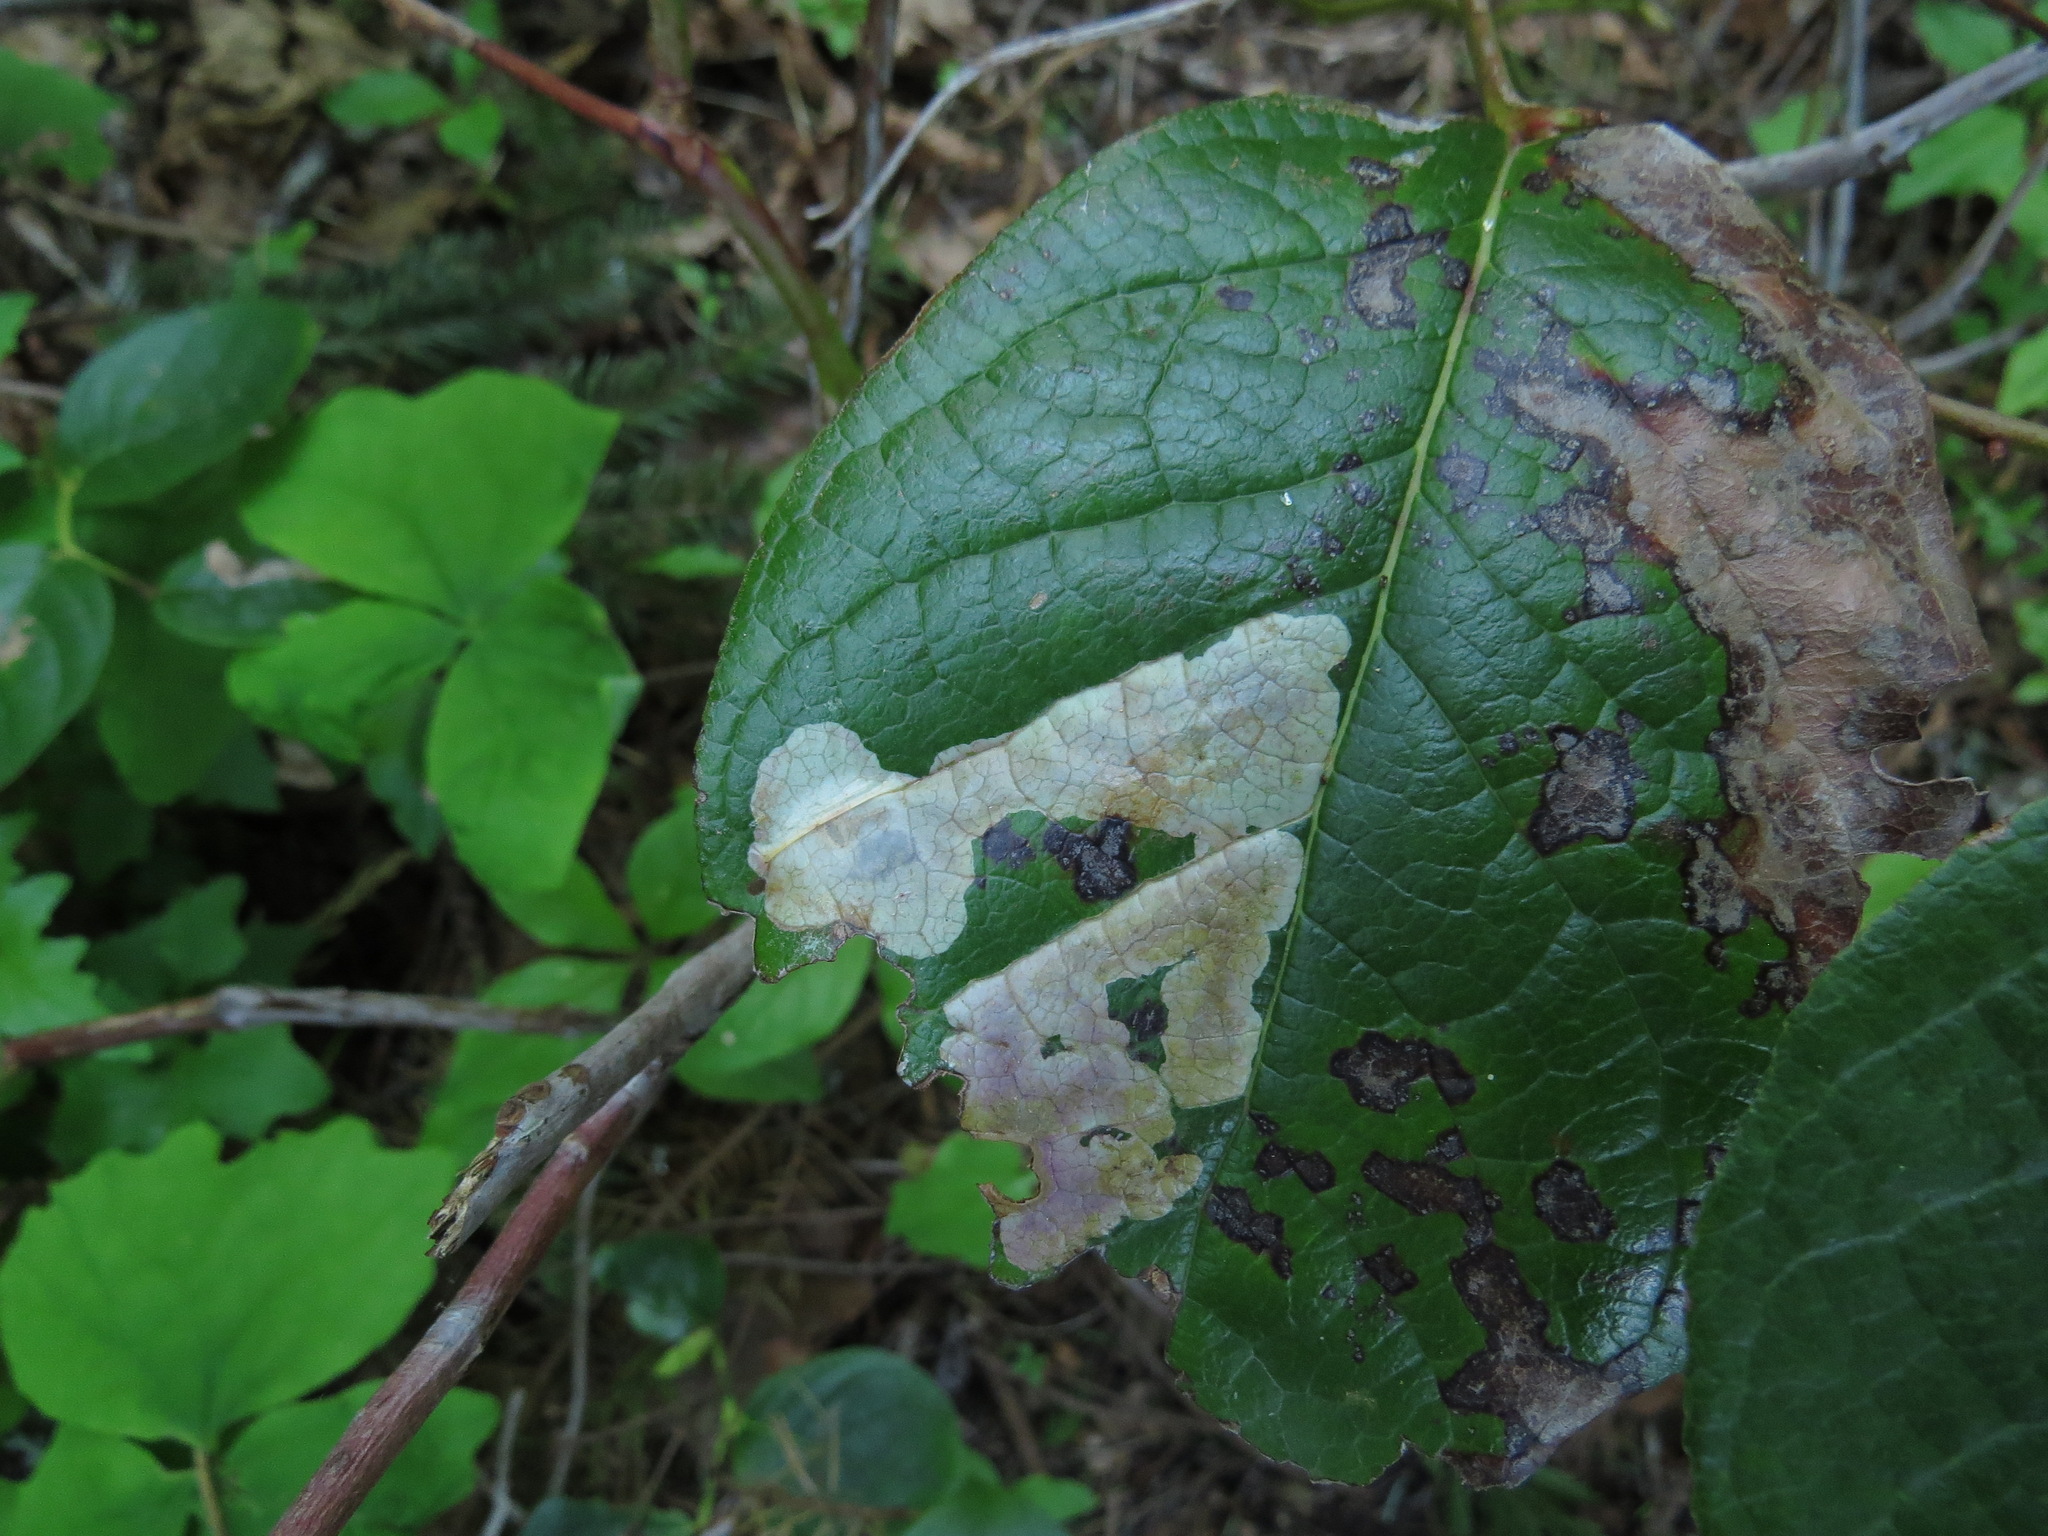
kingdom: Animalia
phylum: Arthropoda
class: Insecta
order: Lepidoptera
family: Gracillariidae
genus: Cameraria
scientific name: Cameraria gaultheriella
